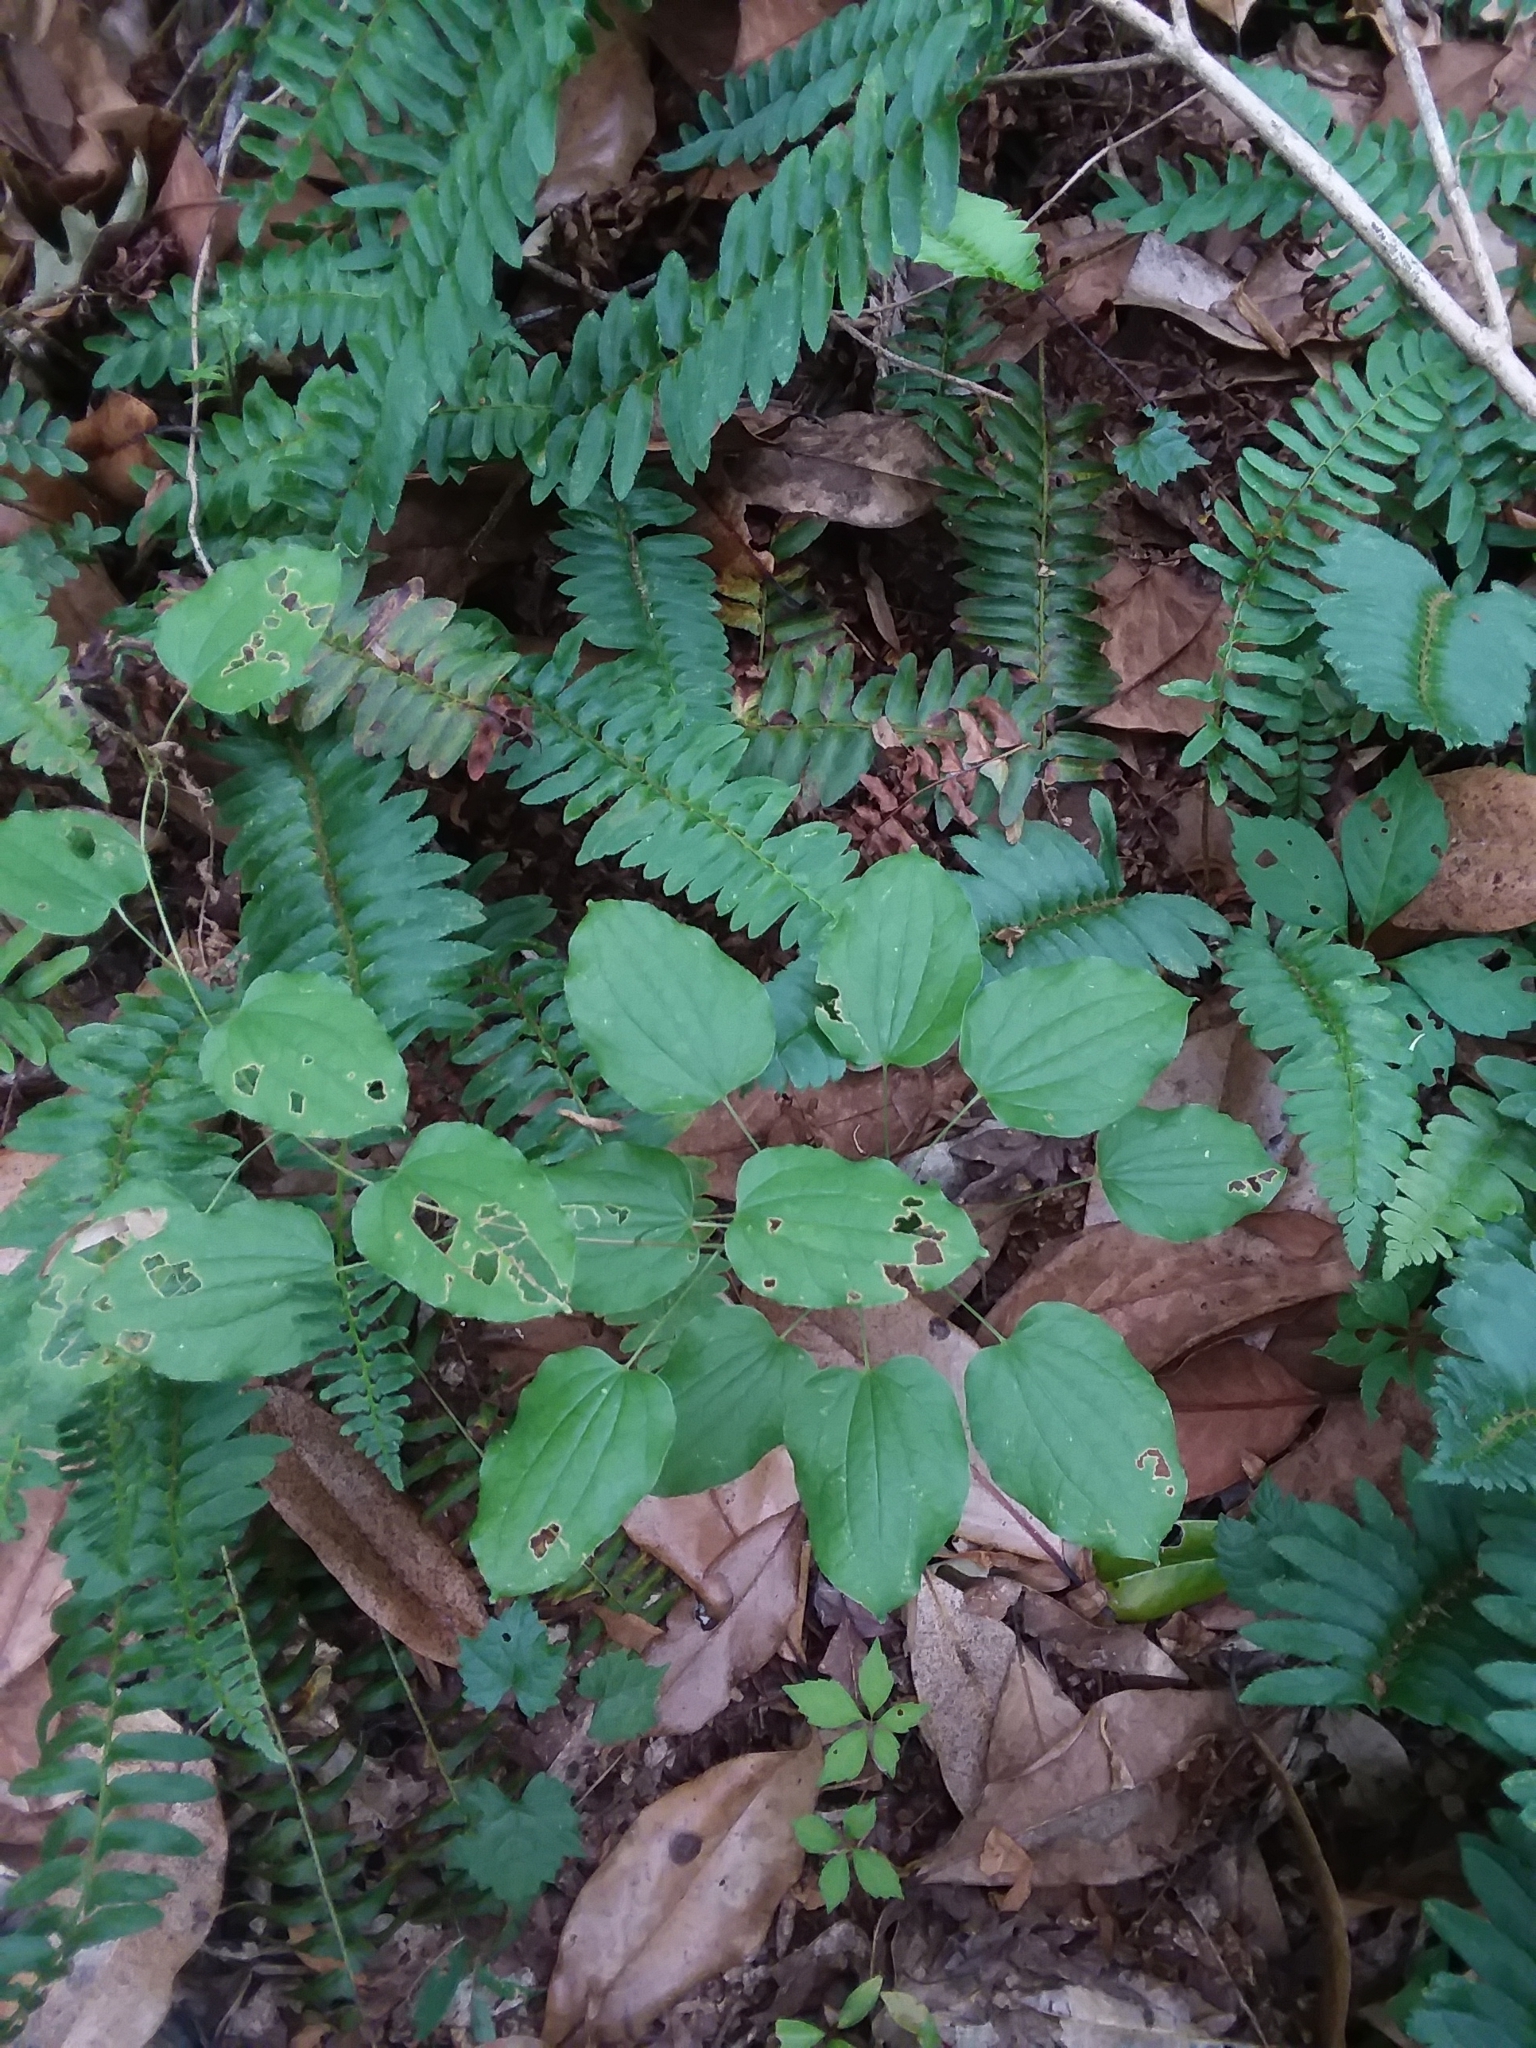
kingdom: Plantae
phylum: Tracheophyta
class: Liliopsida
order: Liliales
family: Smilacaceae
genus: Smilax
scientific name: Smilax lasioneura
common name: Blue ridge carrionflower
